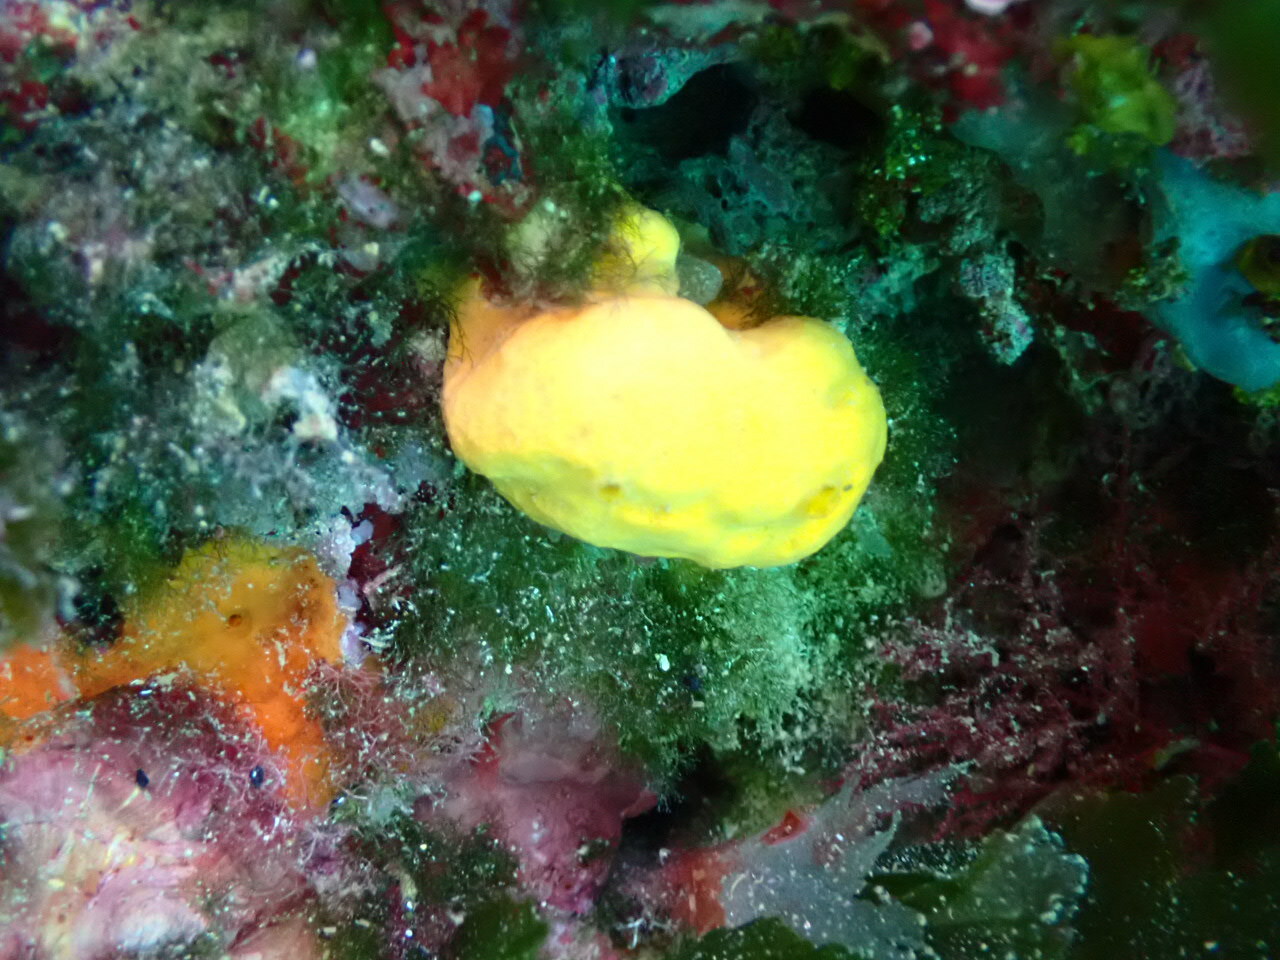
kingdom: Animalia
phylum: Porifera
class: Demospongiae
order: Agelasida
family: Agelasidae
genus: Agelas
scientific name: Agelas oroides
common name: Maltese sponge
